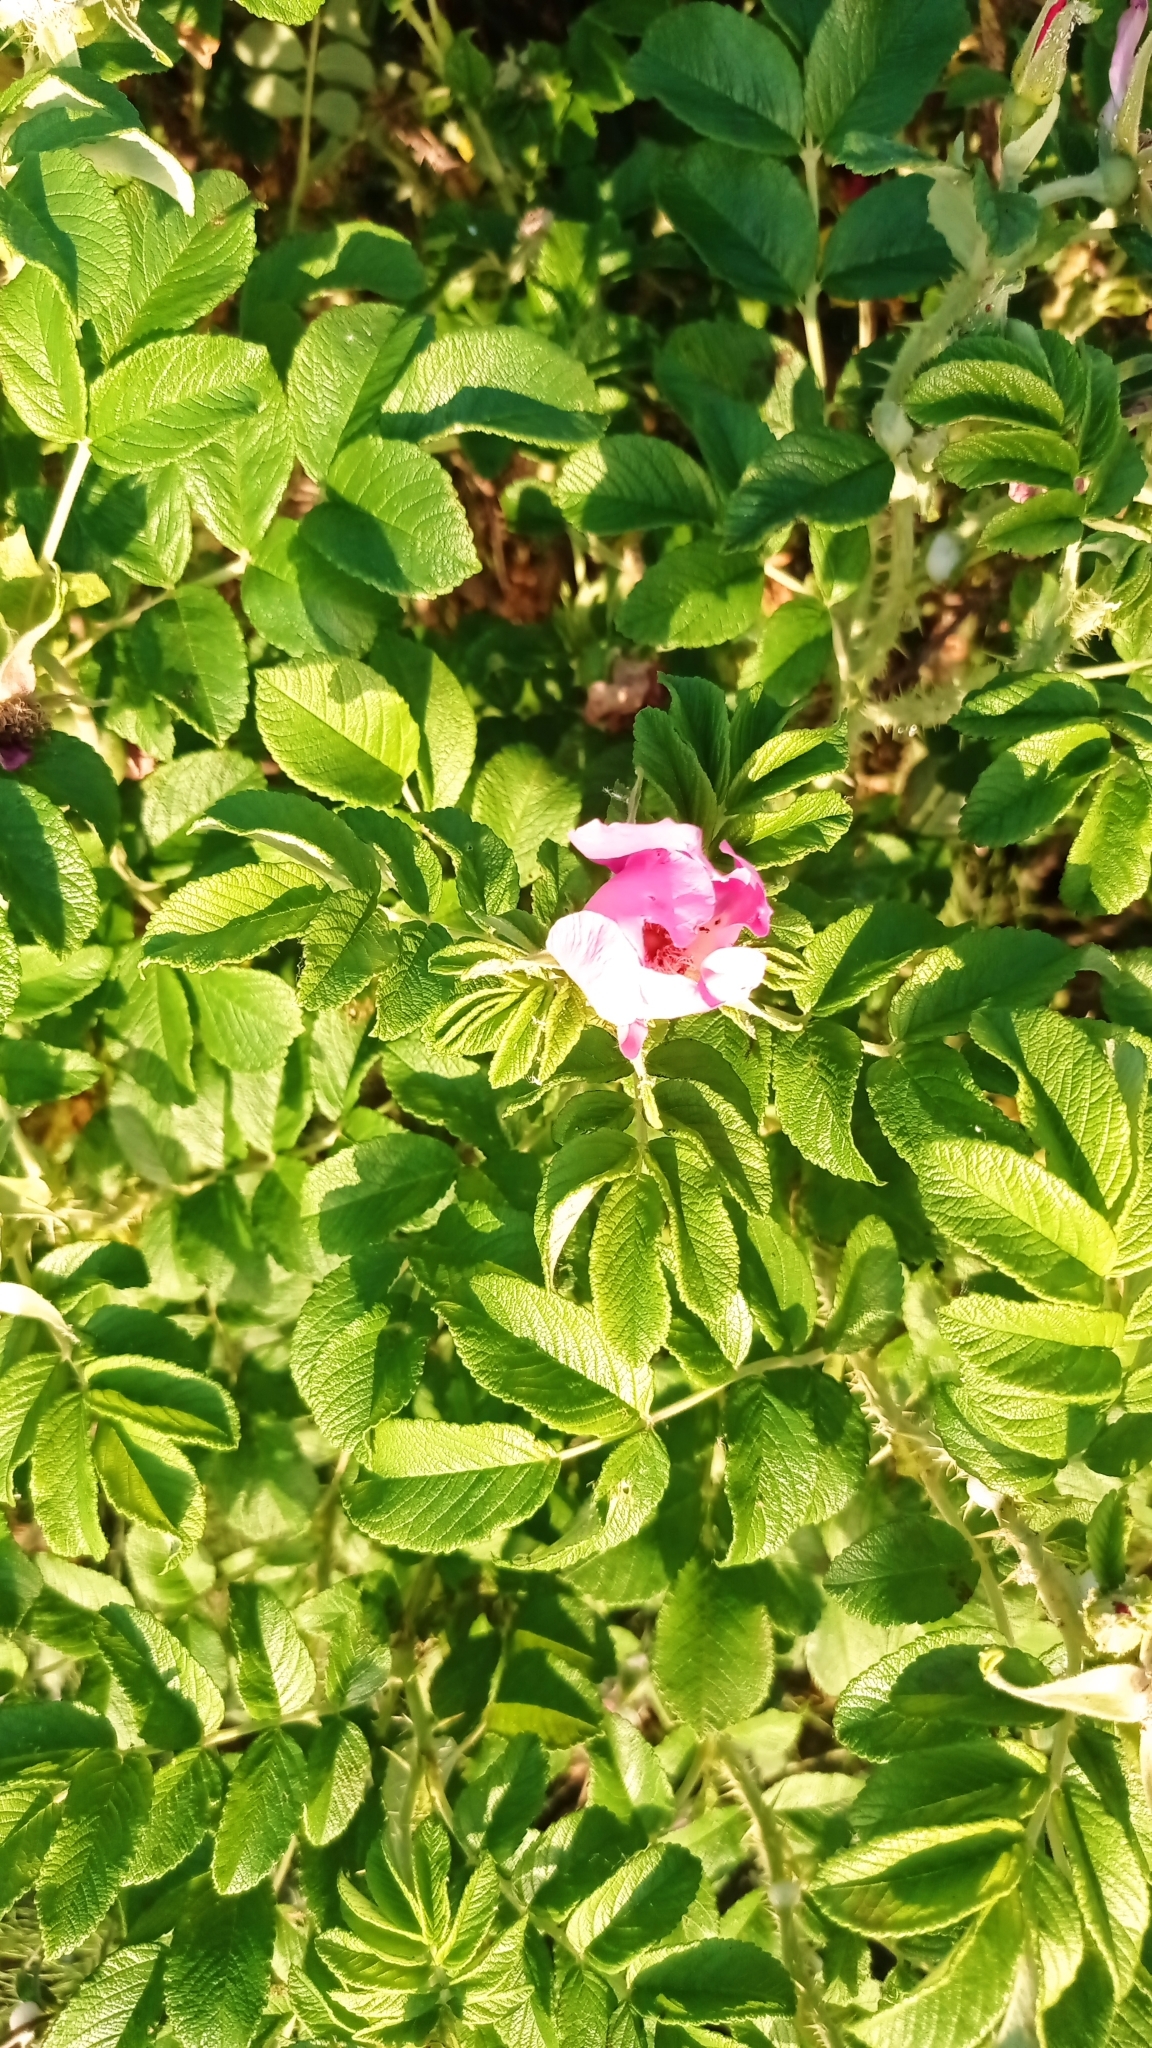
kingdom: Plantae
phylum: Tracheophyta
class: Magnoliopsida
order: Rosales
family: Rosaceae
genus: Rosa
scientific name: Rosa rugosa
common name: Japanese rose
